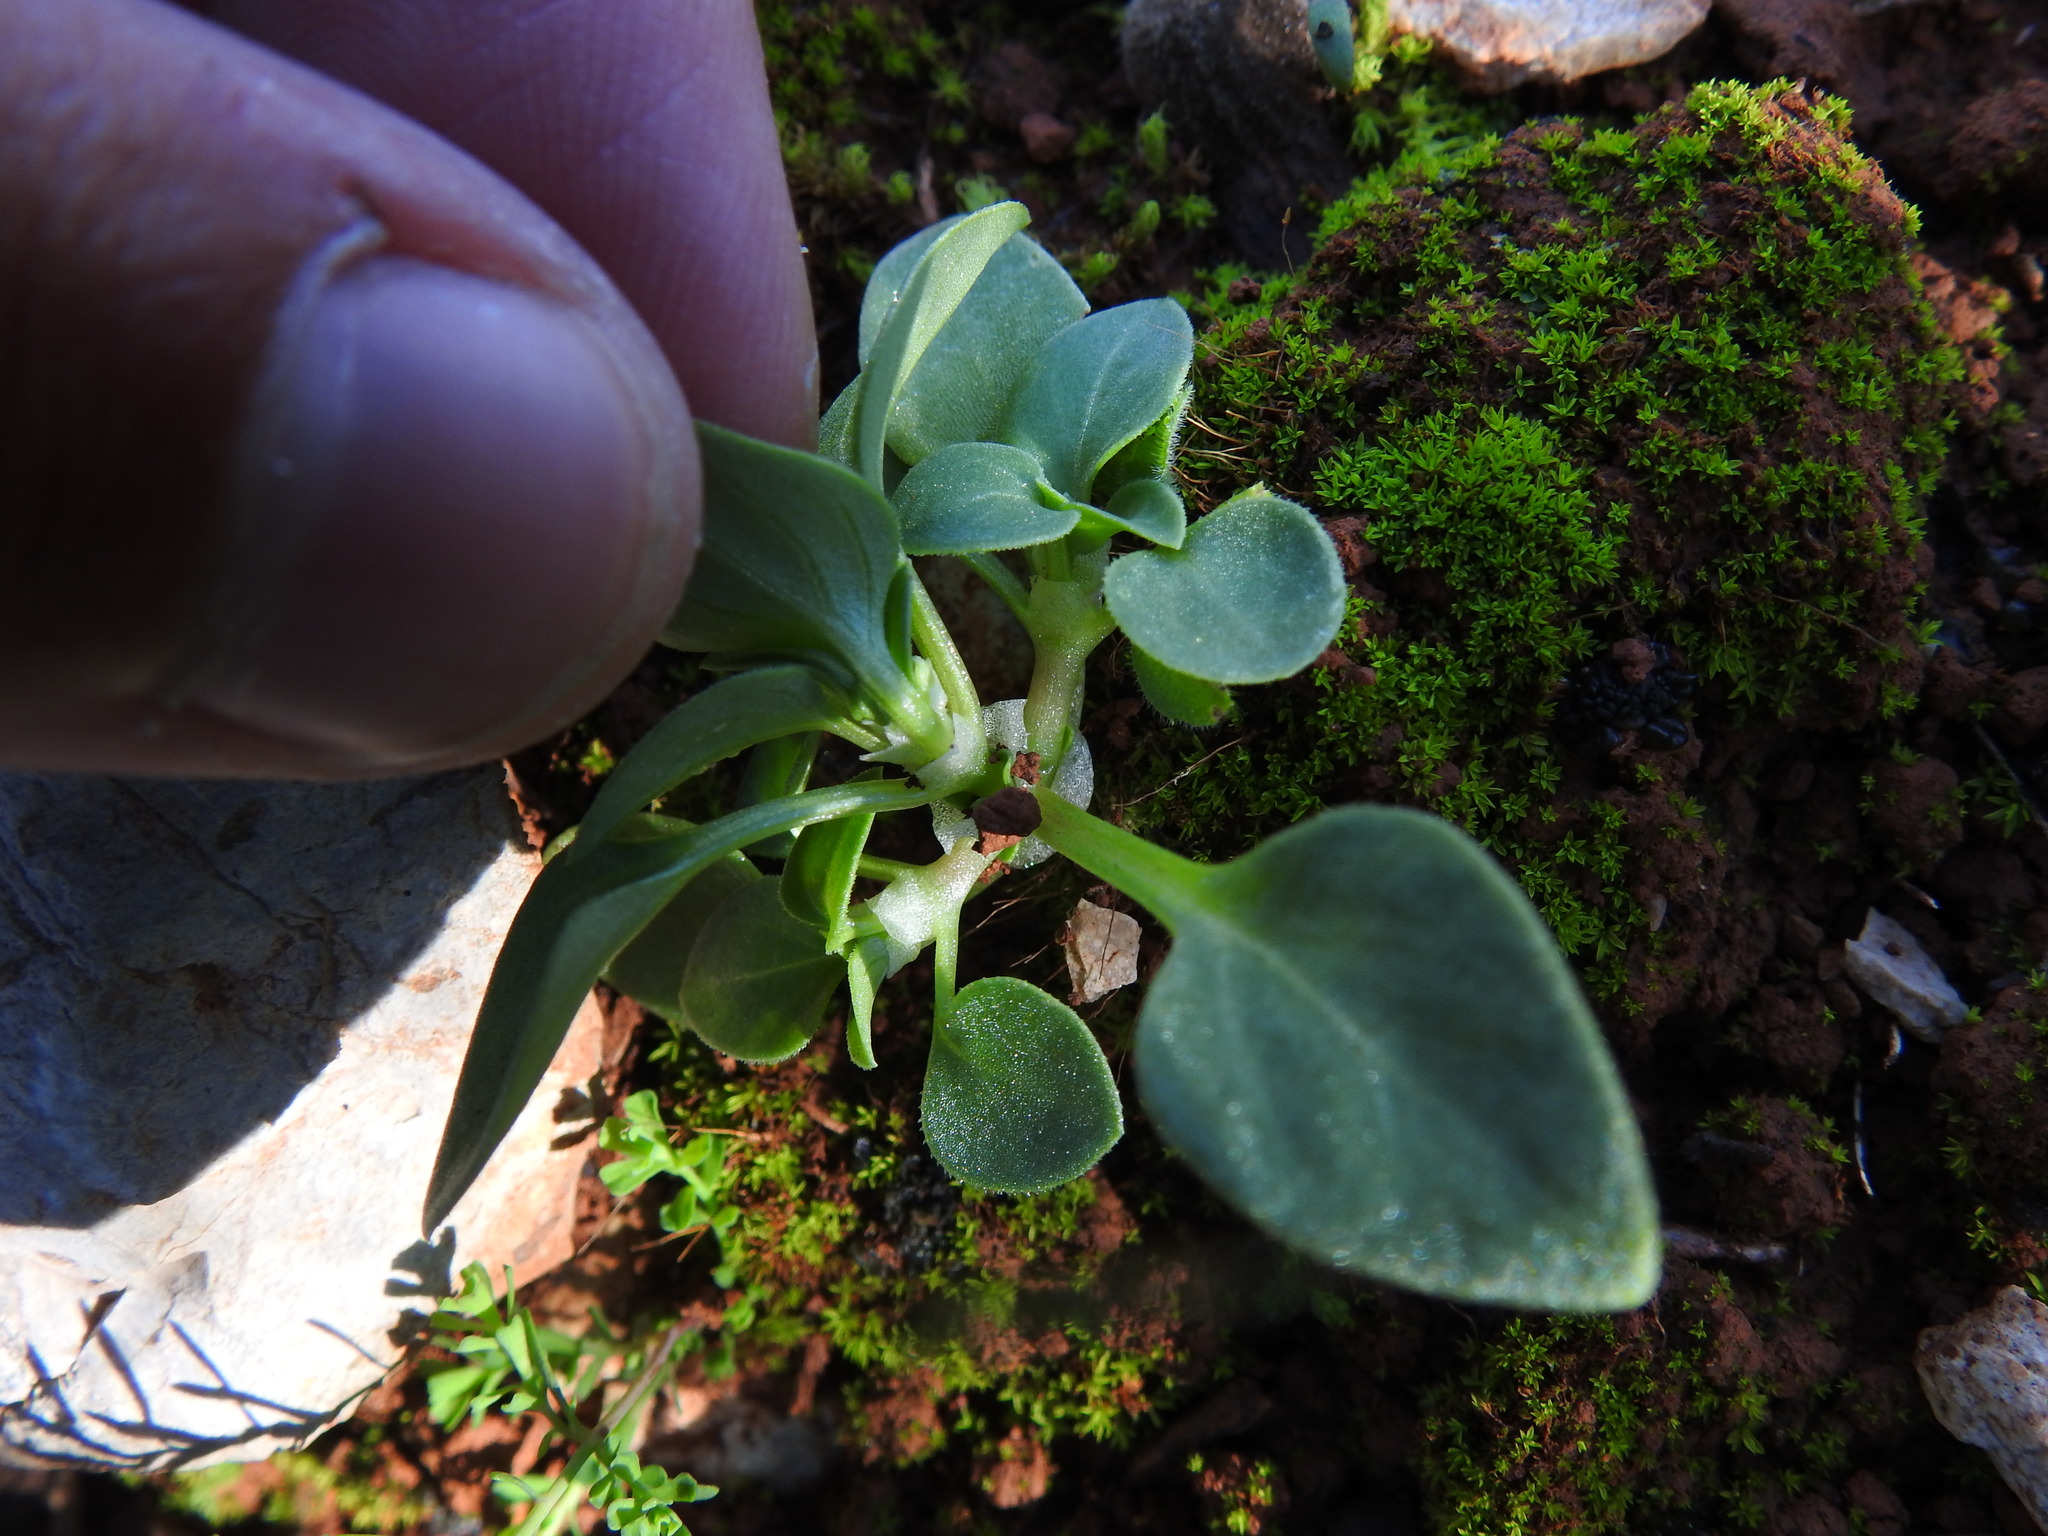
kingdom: Plantae
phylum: Tracheophyta
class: Magnoliopsida
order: Gentianales
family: Rubiaceae
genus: Theligonum
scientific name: Theligonum cynocrambe
